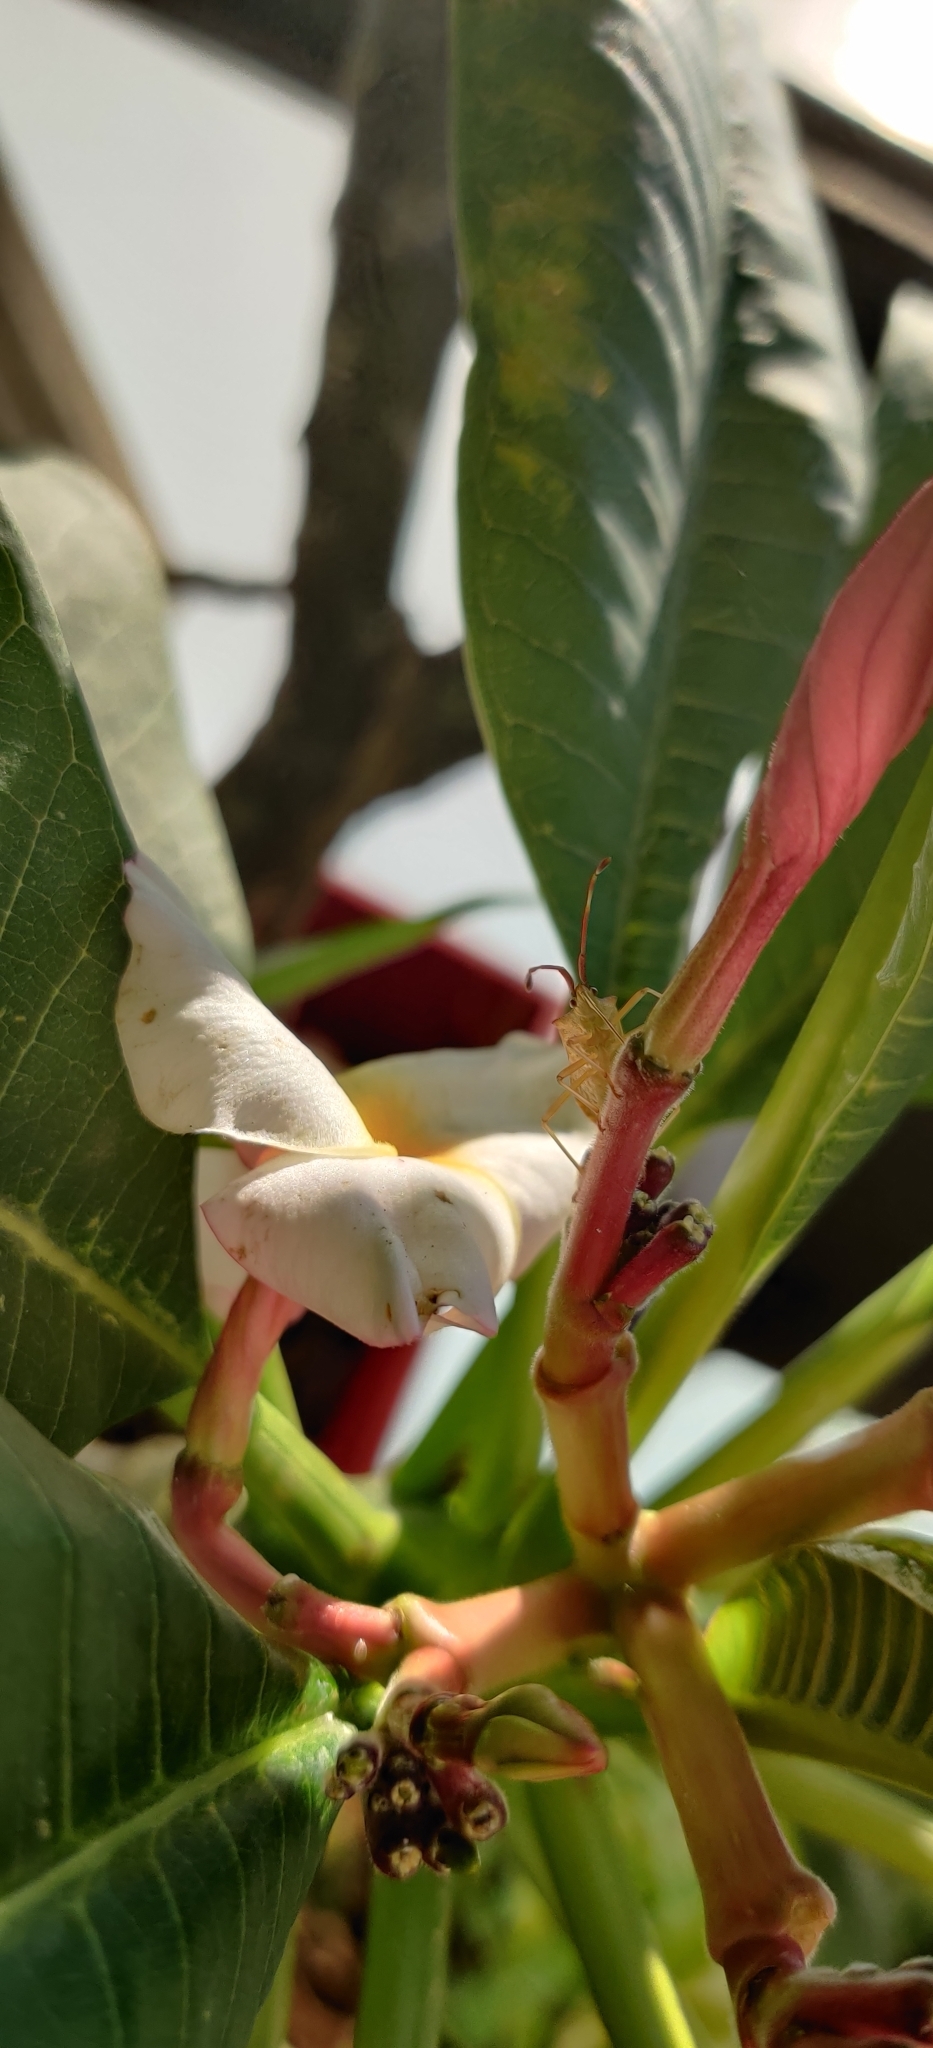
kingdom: Animalia
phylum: Arthropoda
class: Insecta
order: Hemiptera
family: Coreidae
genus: Gonocerus
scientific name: Gonocerus acuteangulatus
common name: Box bug
